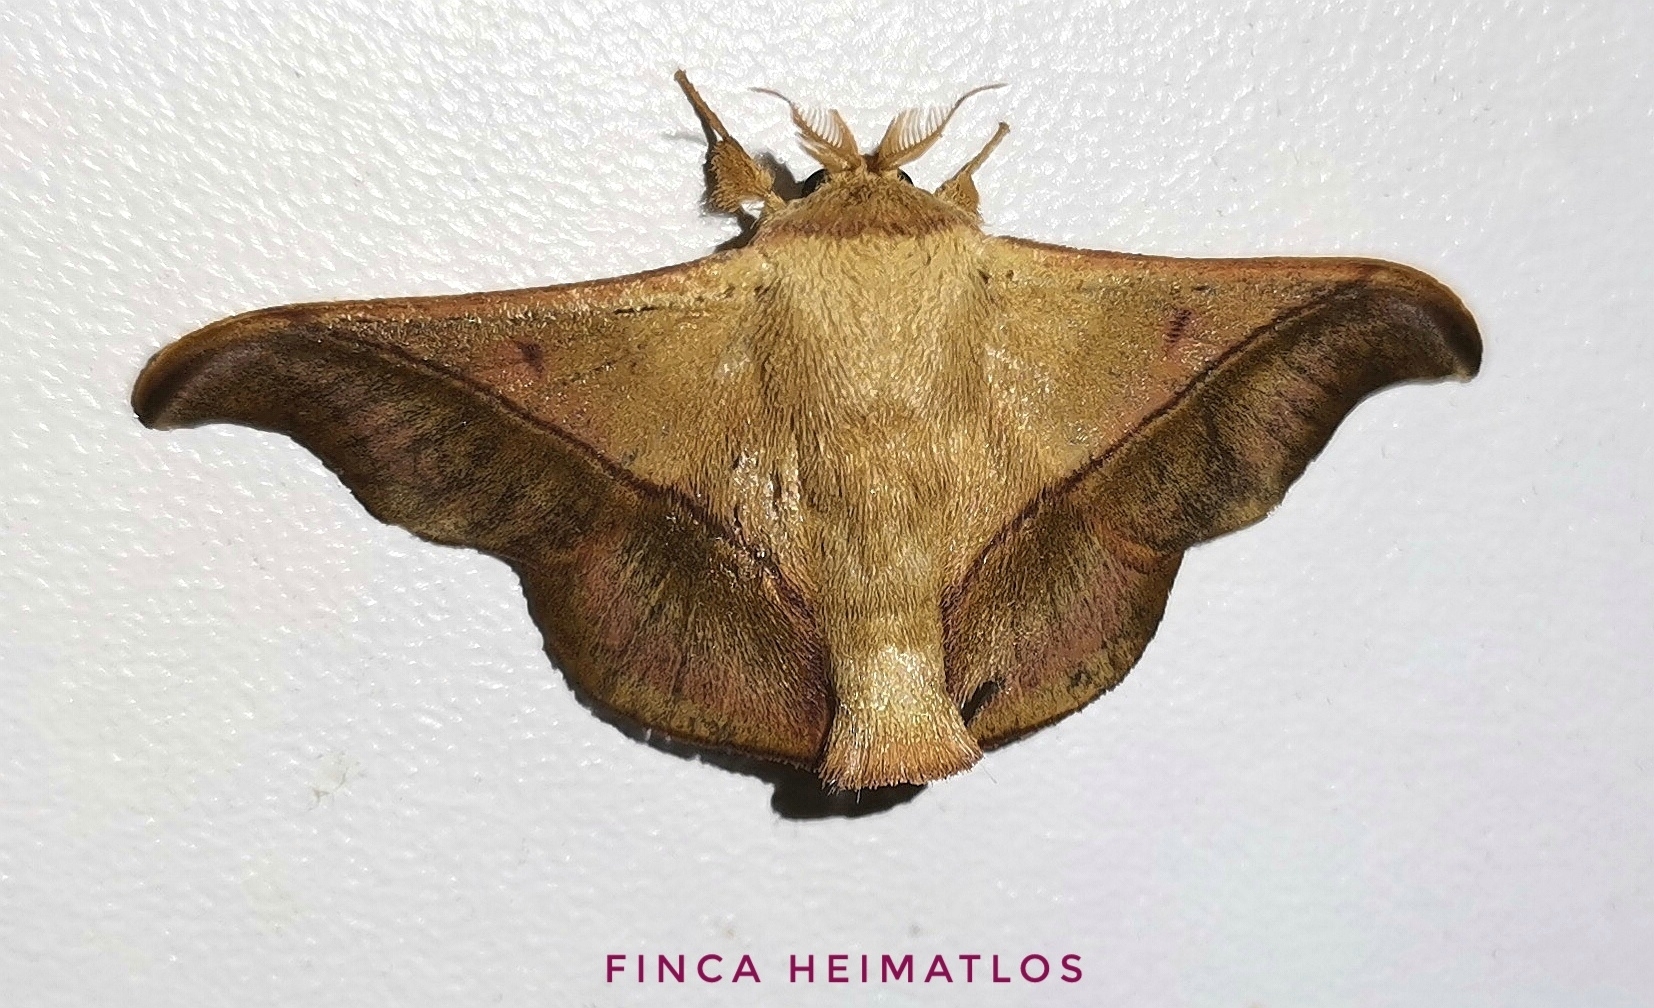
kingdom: Animalia
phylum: Arthropoda
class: Insecta
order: Lepidoptera
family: Mimallonidae
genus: Alheita
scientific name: Alheita anoca
